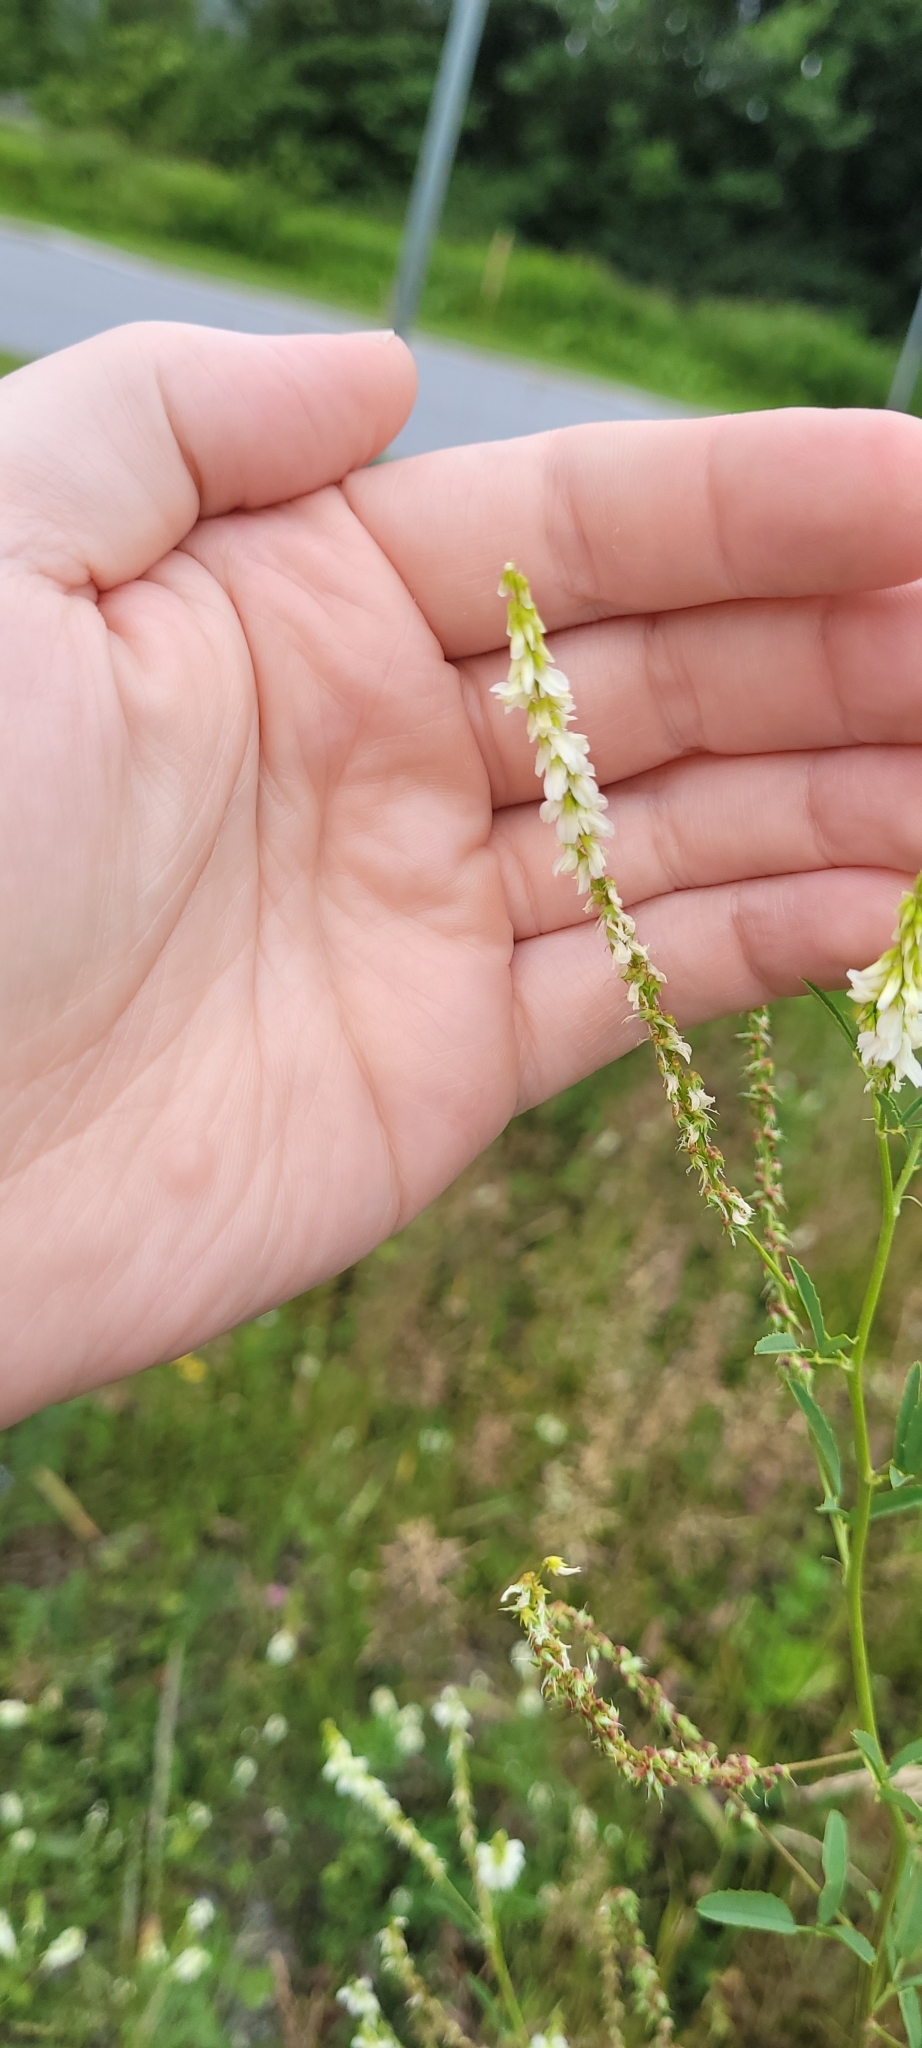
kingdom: Plantae
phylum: Tracheophyta
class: Magnoliopsida
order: Fabales
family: Fabaceae
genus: Melilotus
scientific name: Melilotus albus
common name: White melilot
